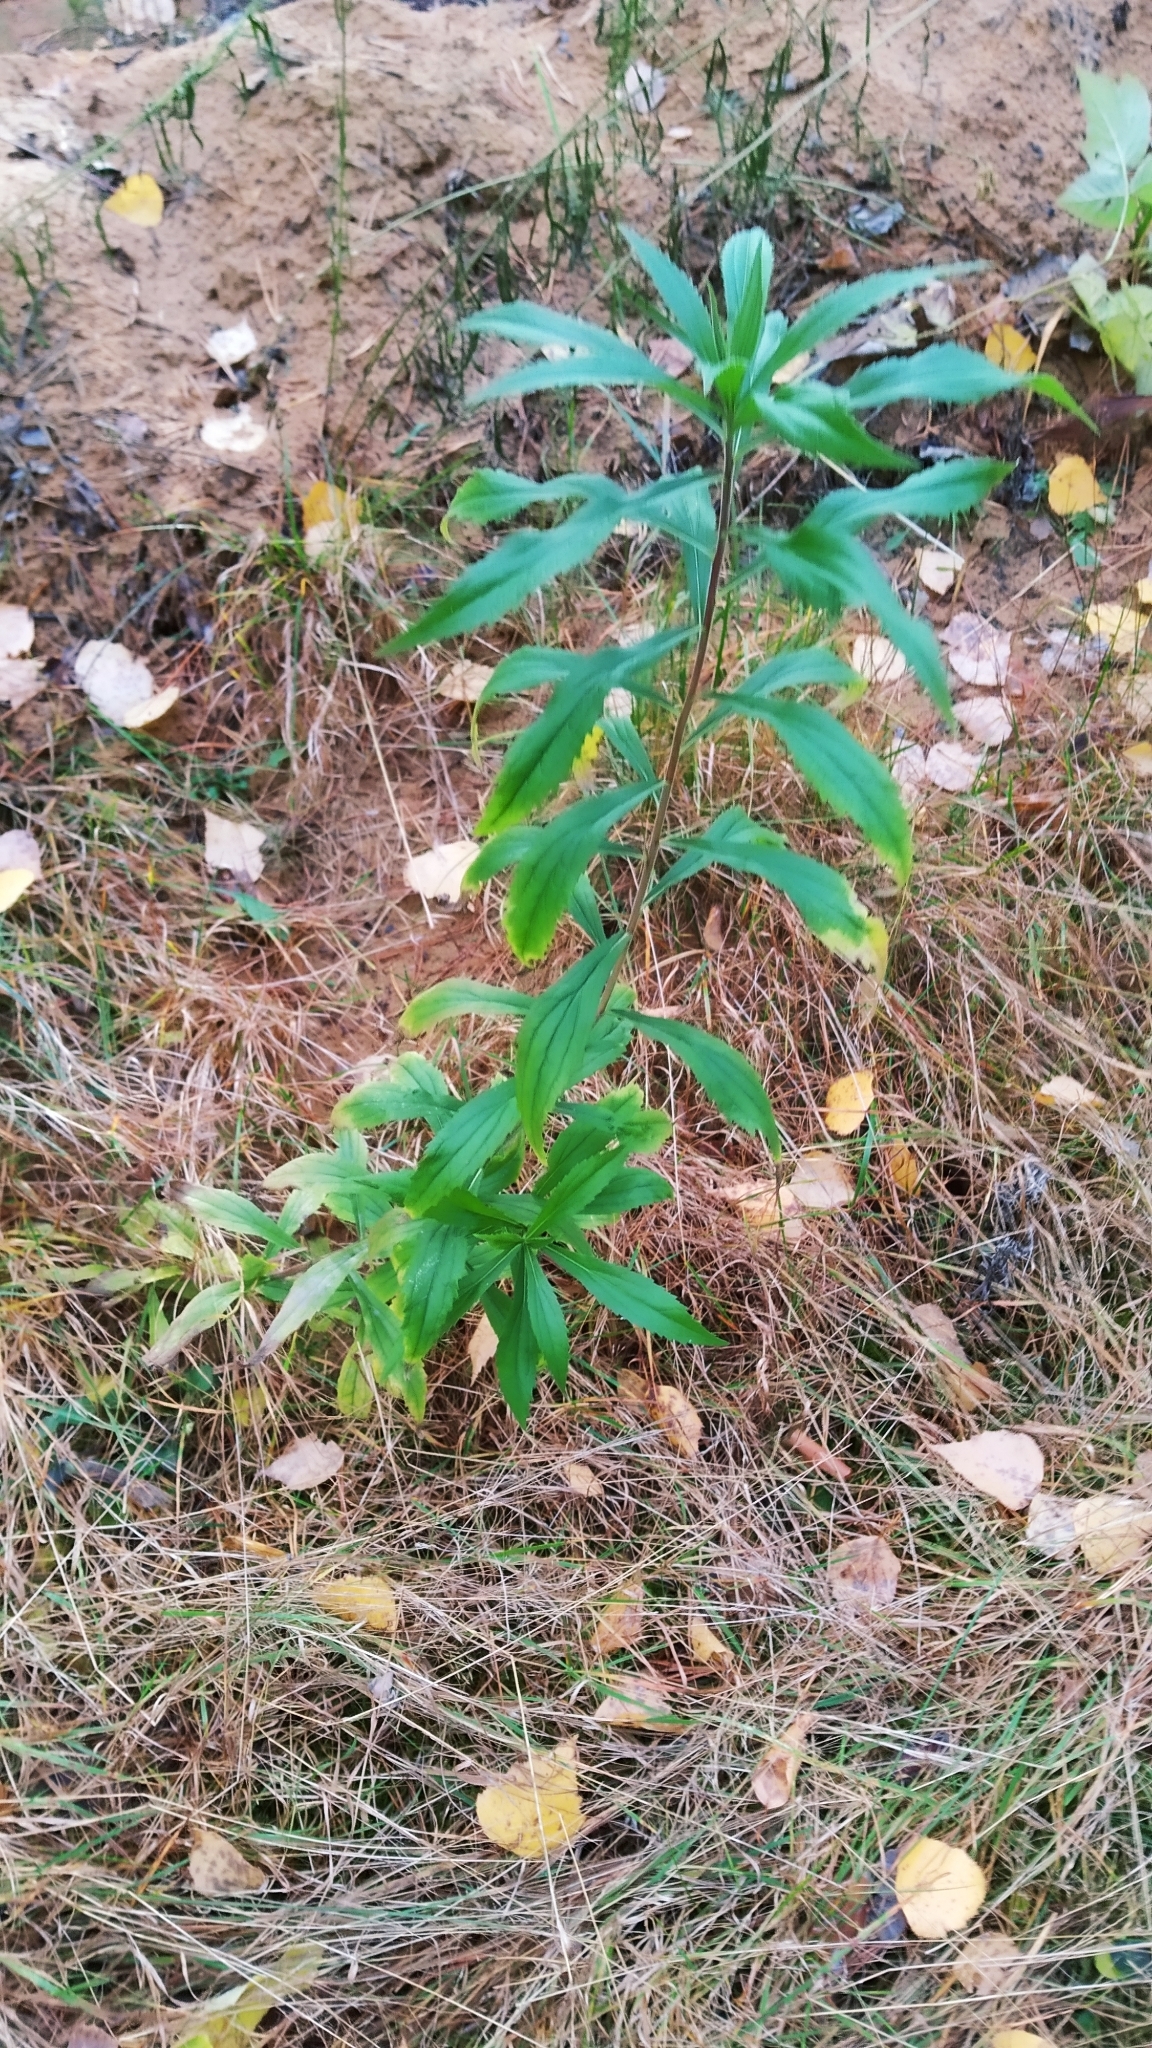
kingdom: Plantae
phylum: Tracheophyta
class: Magnoliopsida
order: Asterales
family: Asteraceae
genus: Solidago
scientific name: Solidago canadensis
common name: Canada goldenrod
